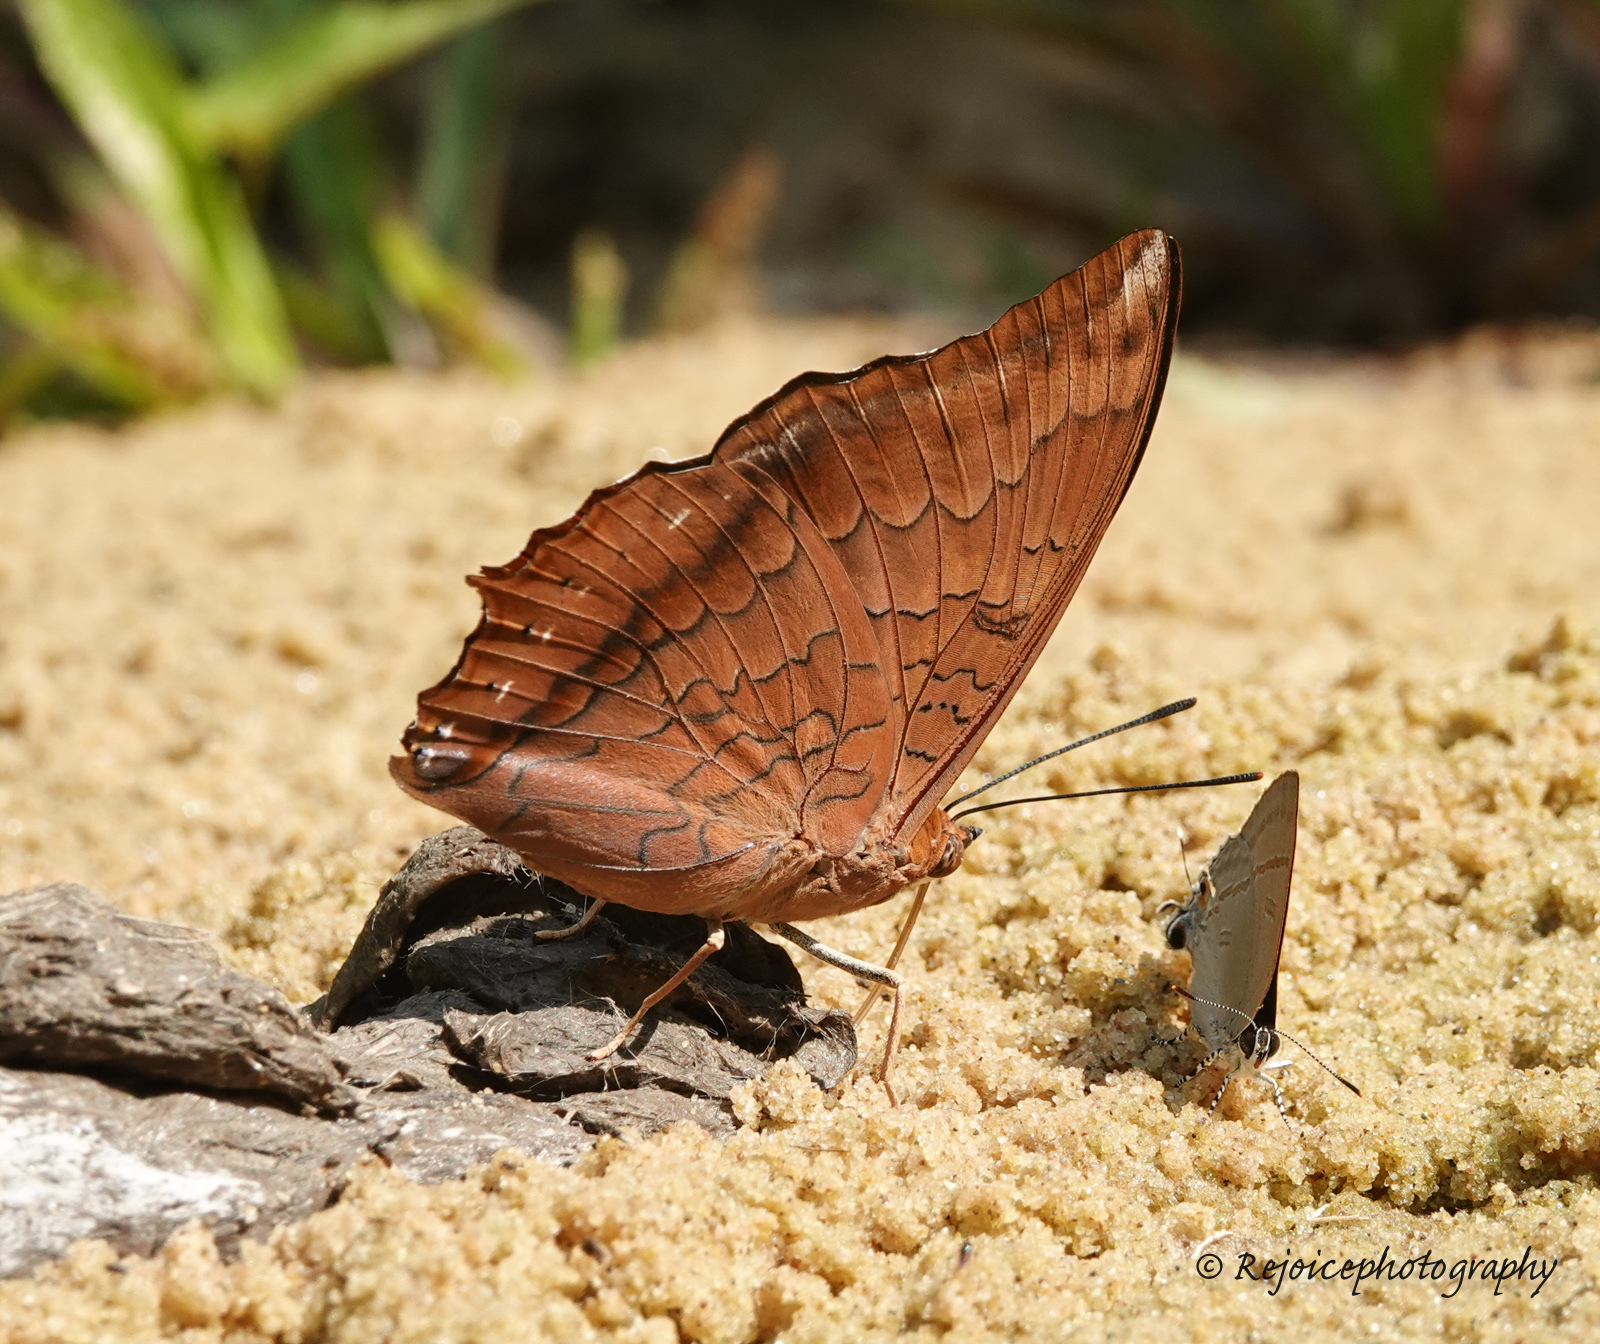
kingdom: Animalia
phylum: Arthropoda
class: Insecta
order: Lepidoptera
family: Nymphalidae
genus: Charaxes
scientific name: Charaxes bernardus
